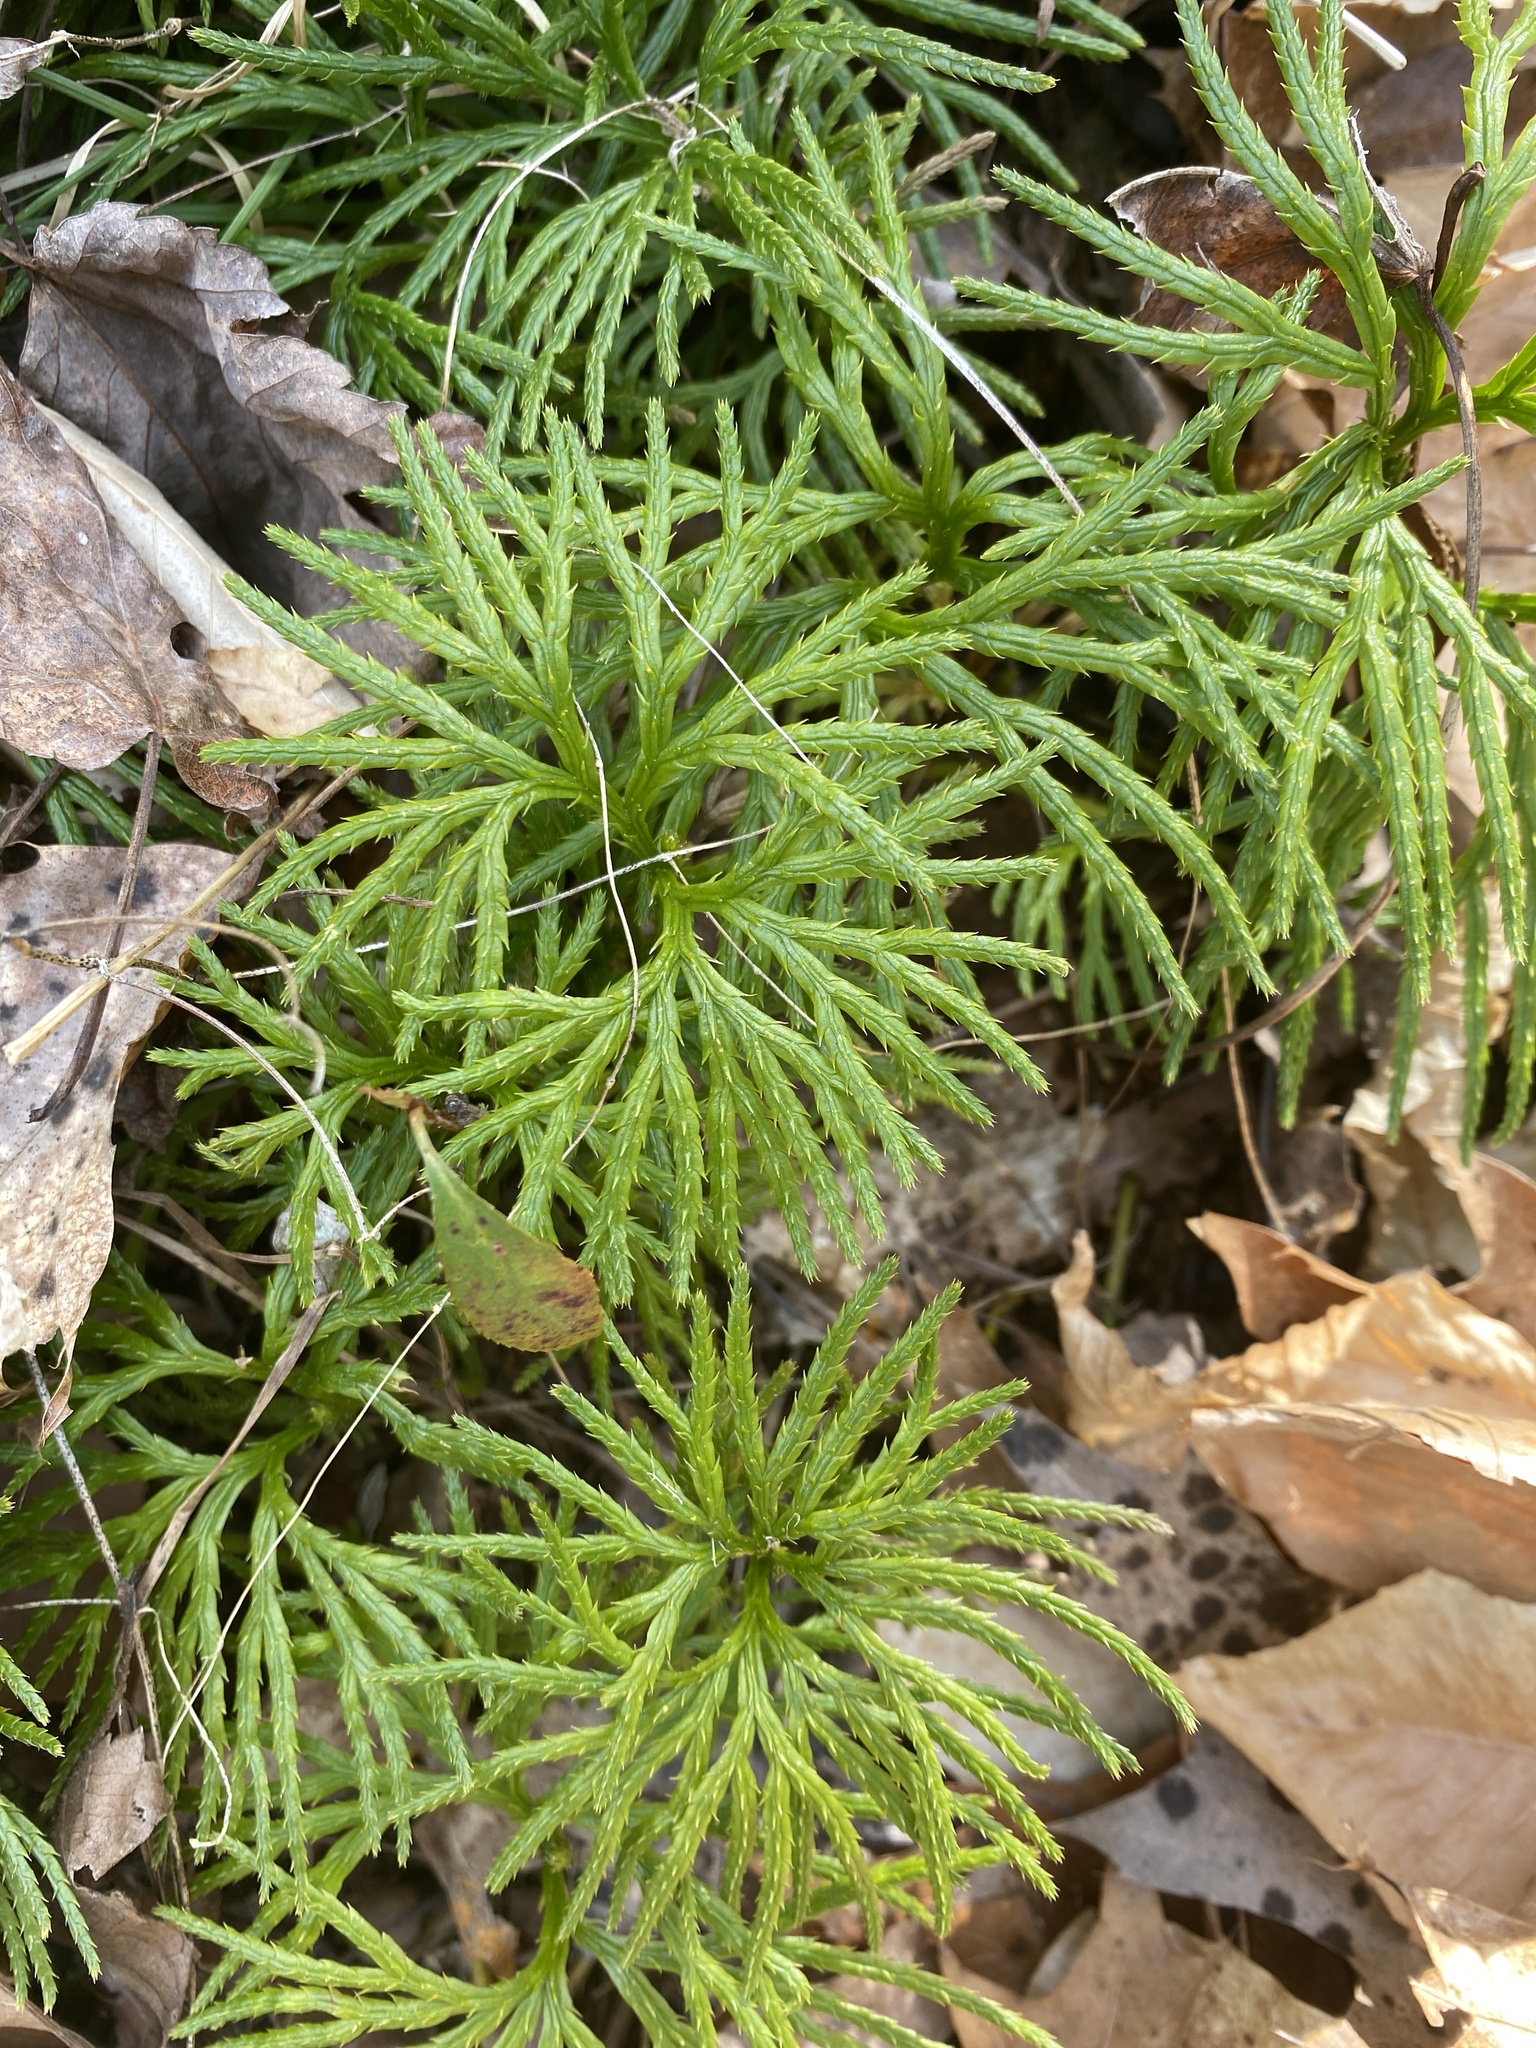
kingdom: Plantae
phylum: Tracheophyta
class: Lycopodiopsida
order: Lycopodiales
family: Lycopodiaceae
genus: Diphasiastrum
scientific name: Diphasiastrum digitatum
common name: Southern running-pine
